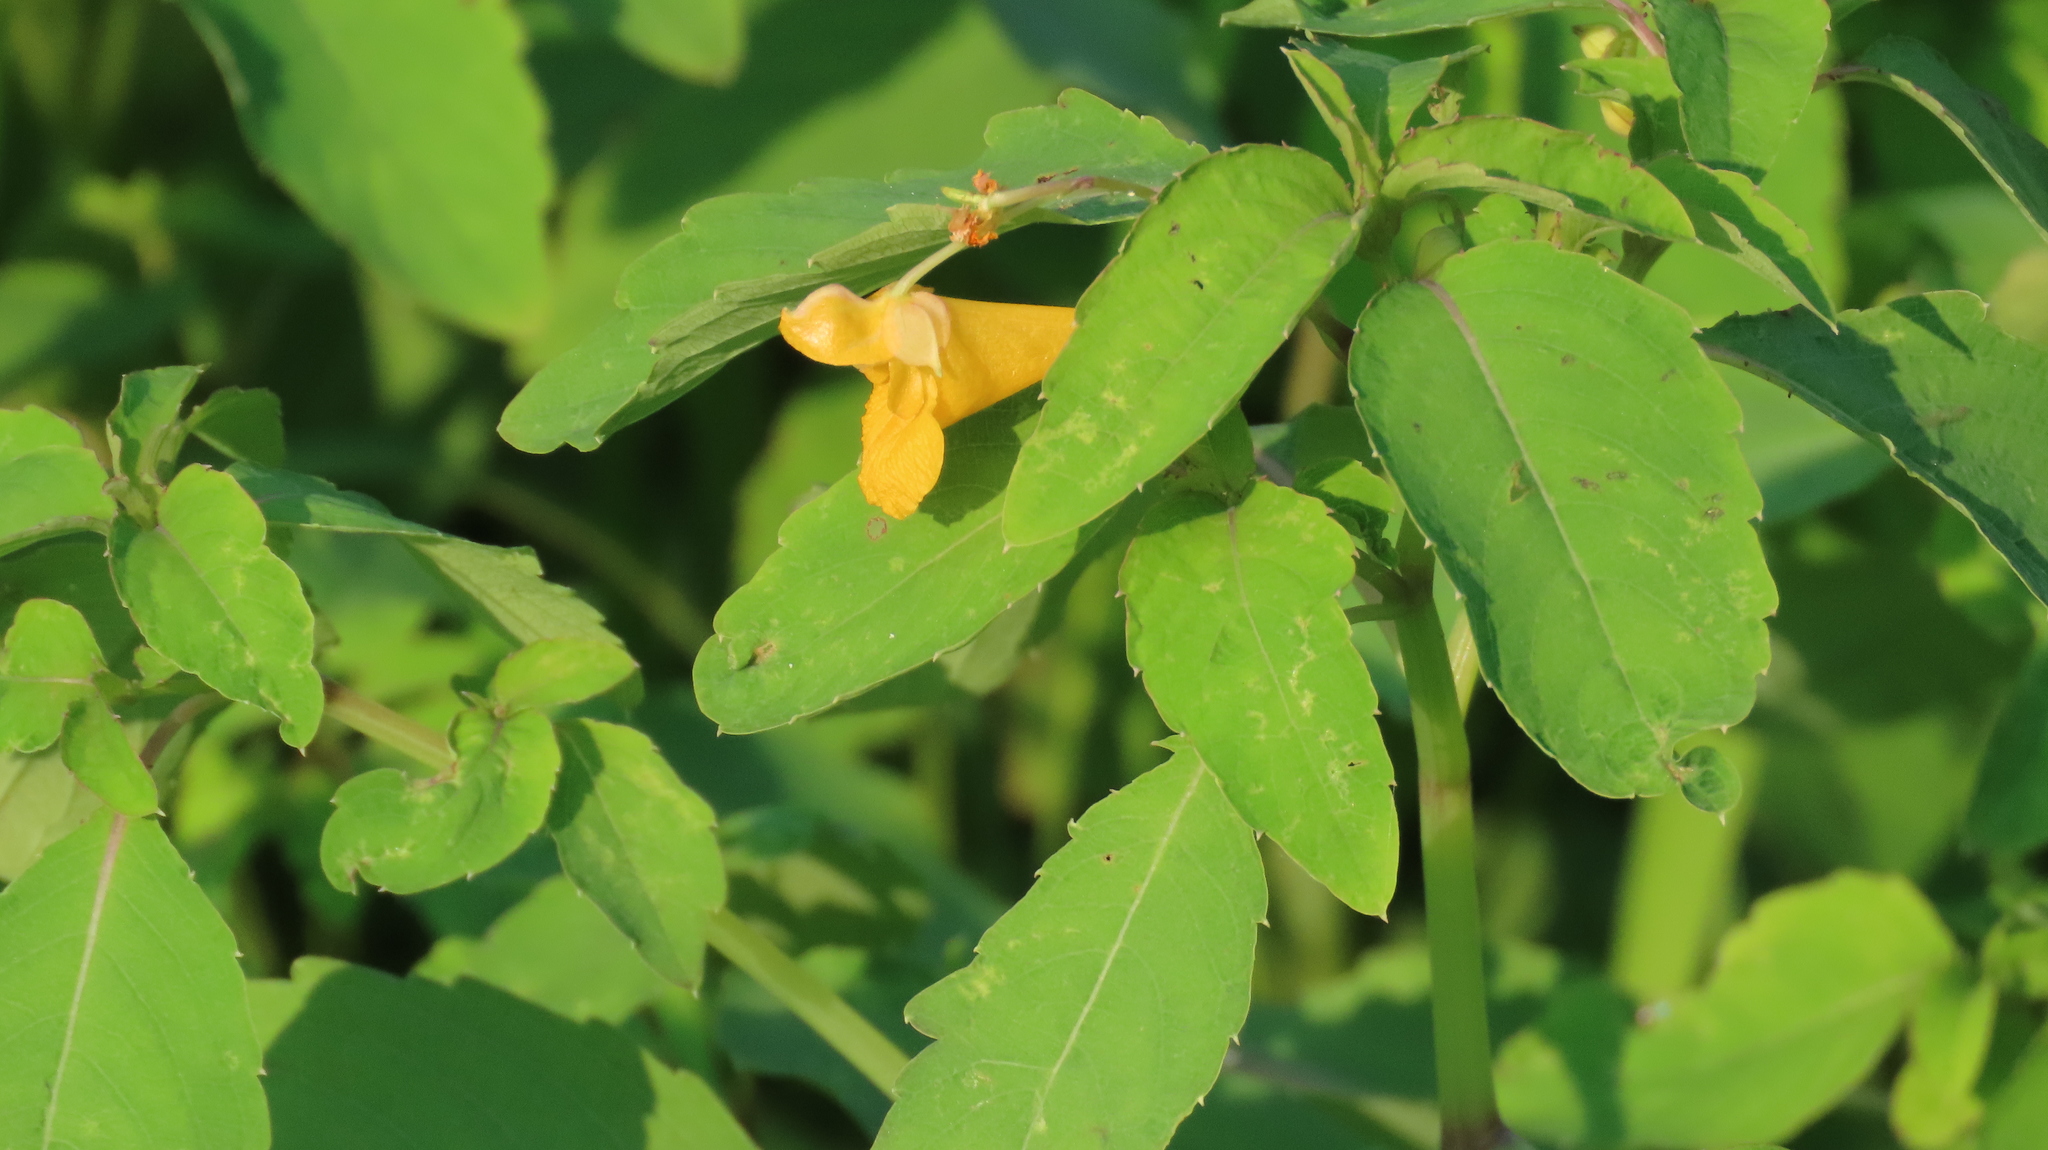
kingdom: Plantae
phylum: Tracheophyta
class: Magnoliopsida
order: Ericales
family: Balsaminaceae
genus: Impatiens
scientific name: Impatiens capensis
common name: Orange balsam
